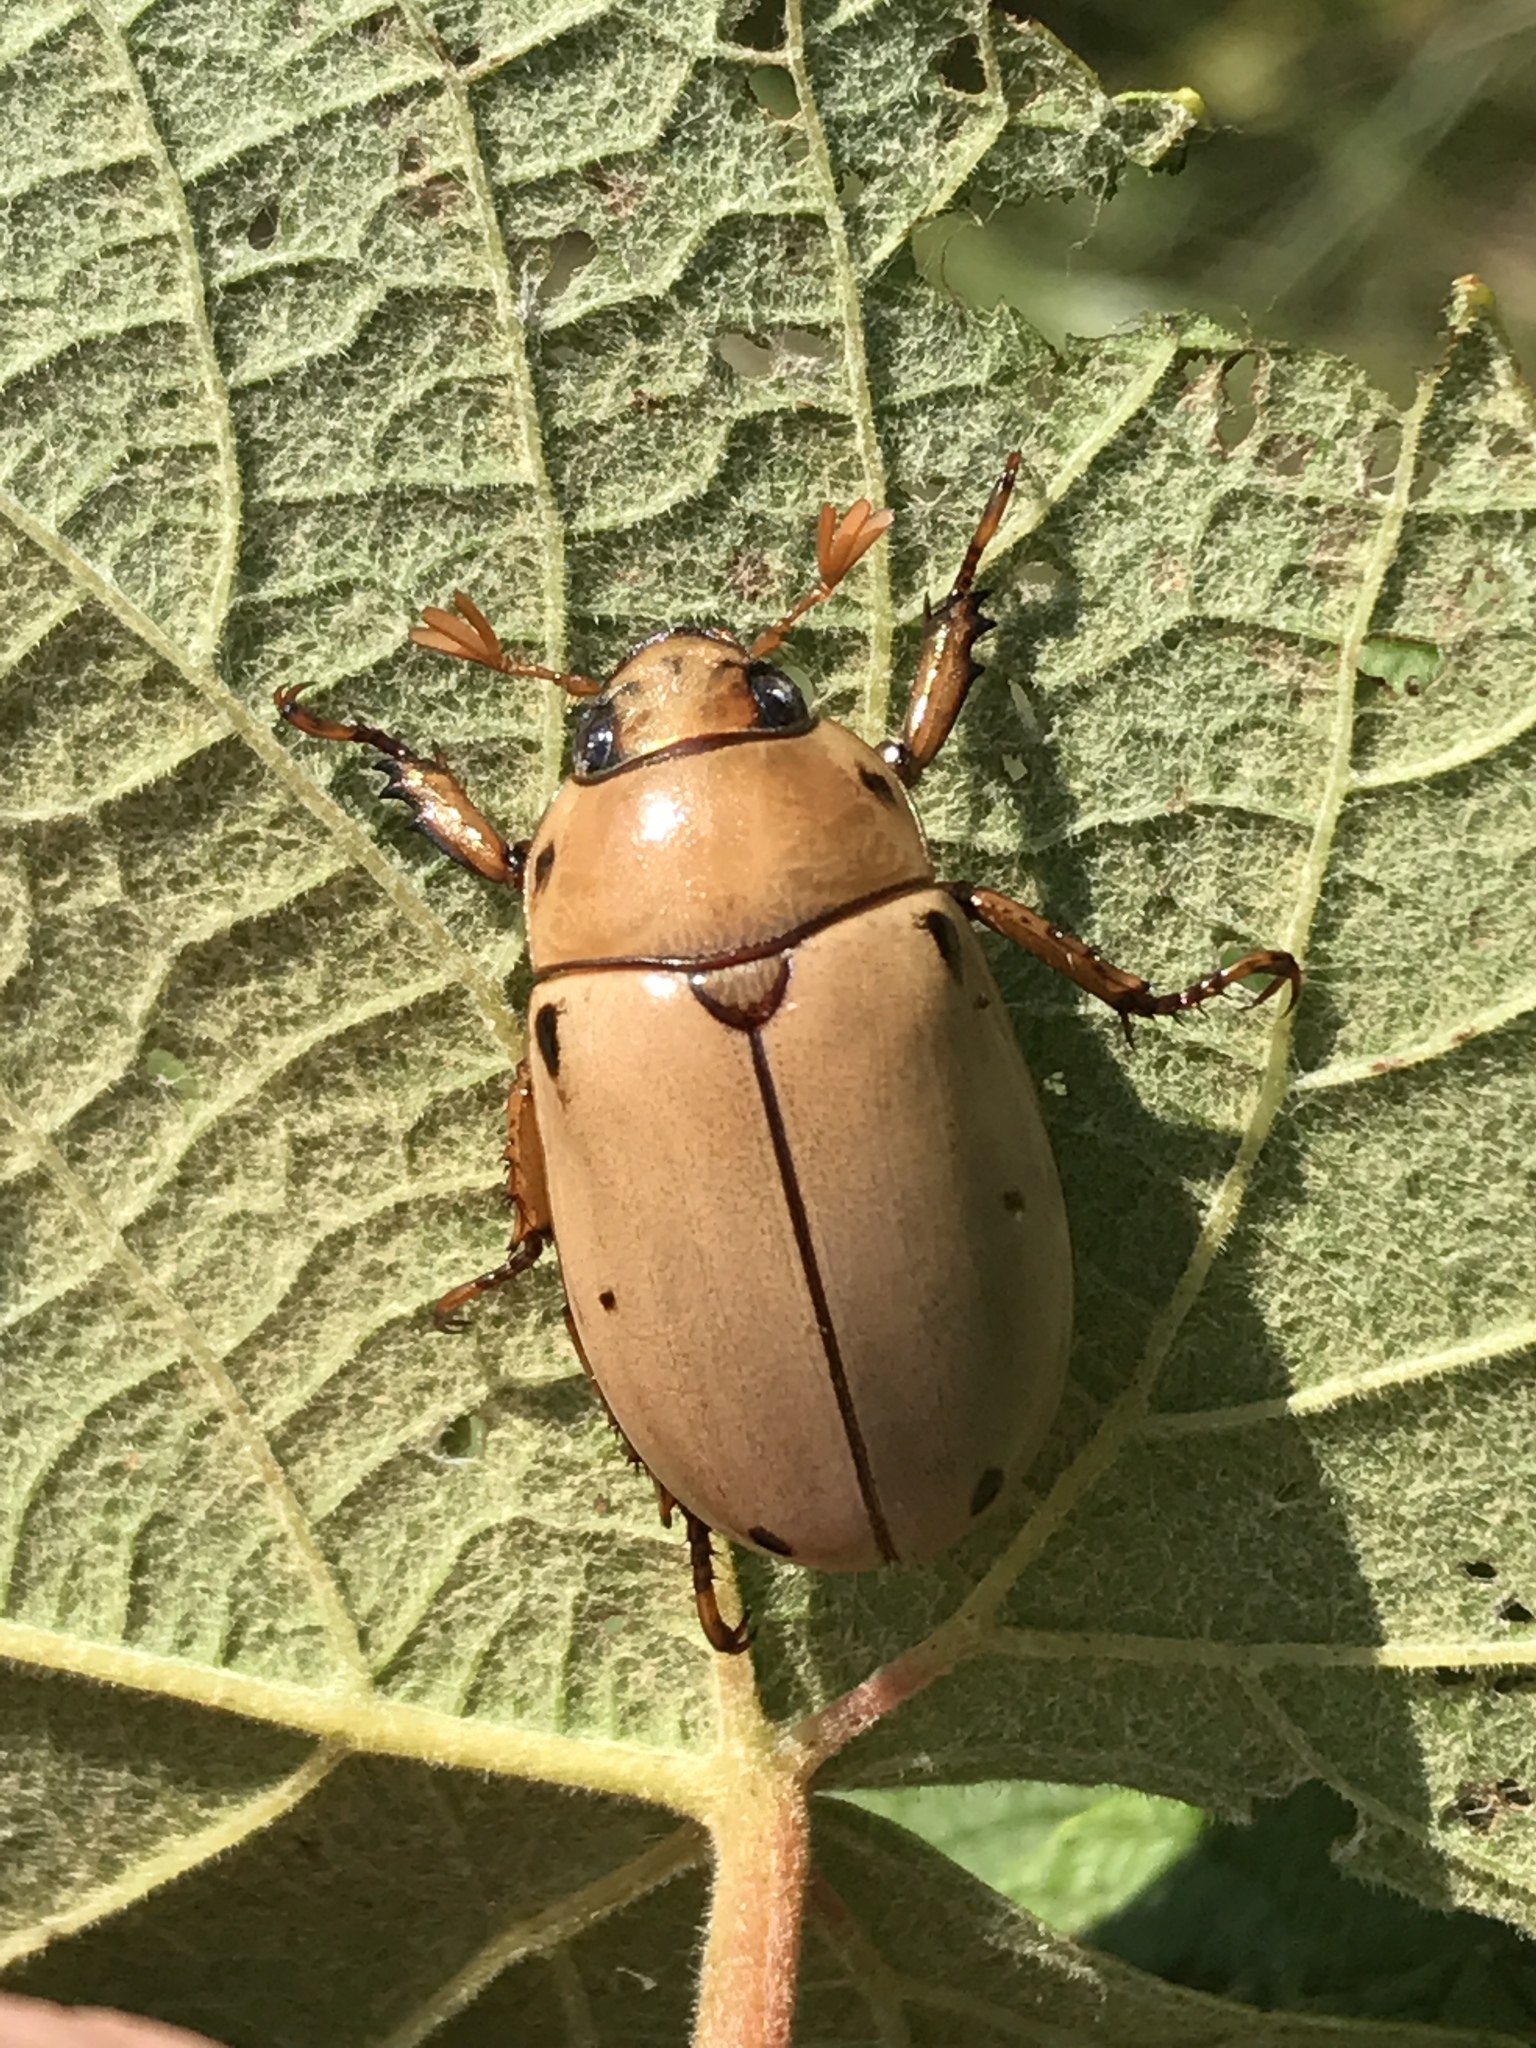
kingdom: Animalia
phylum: Arthropoda
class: Insecta
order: Coleoptera
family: Scarabaeidae
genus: Pelidnota
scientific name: Pelidnota punctata
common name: Grapevine beetle
